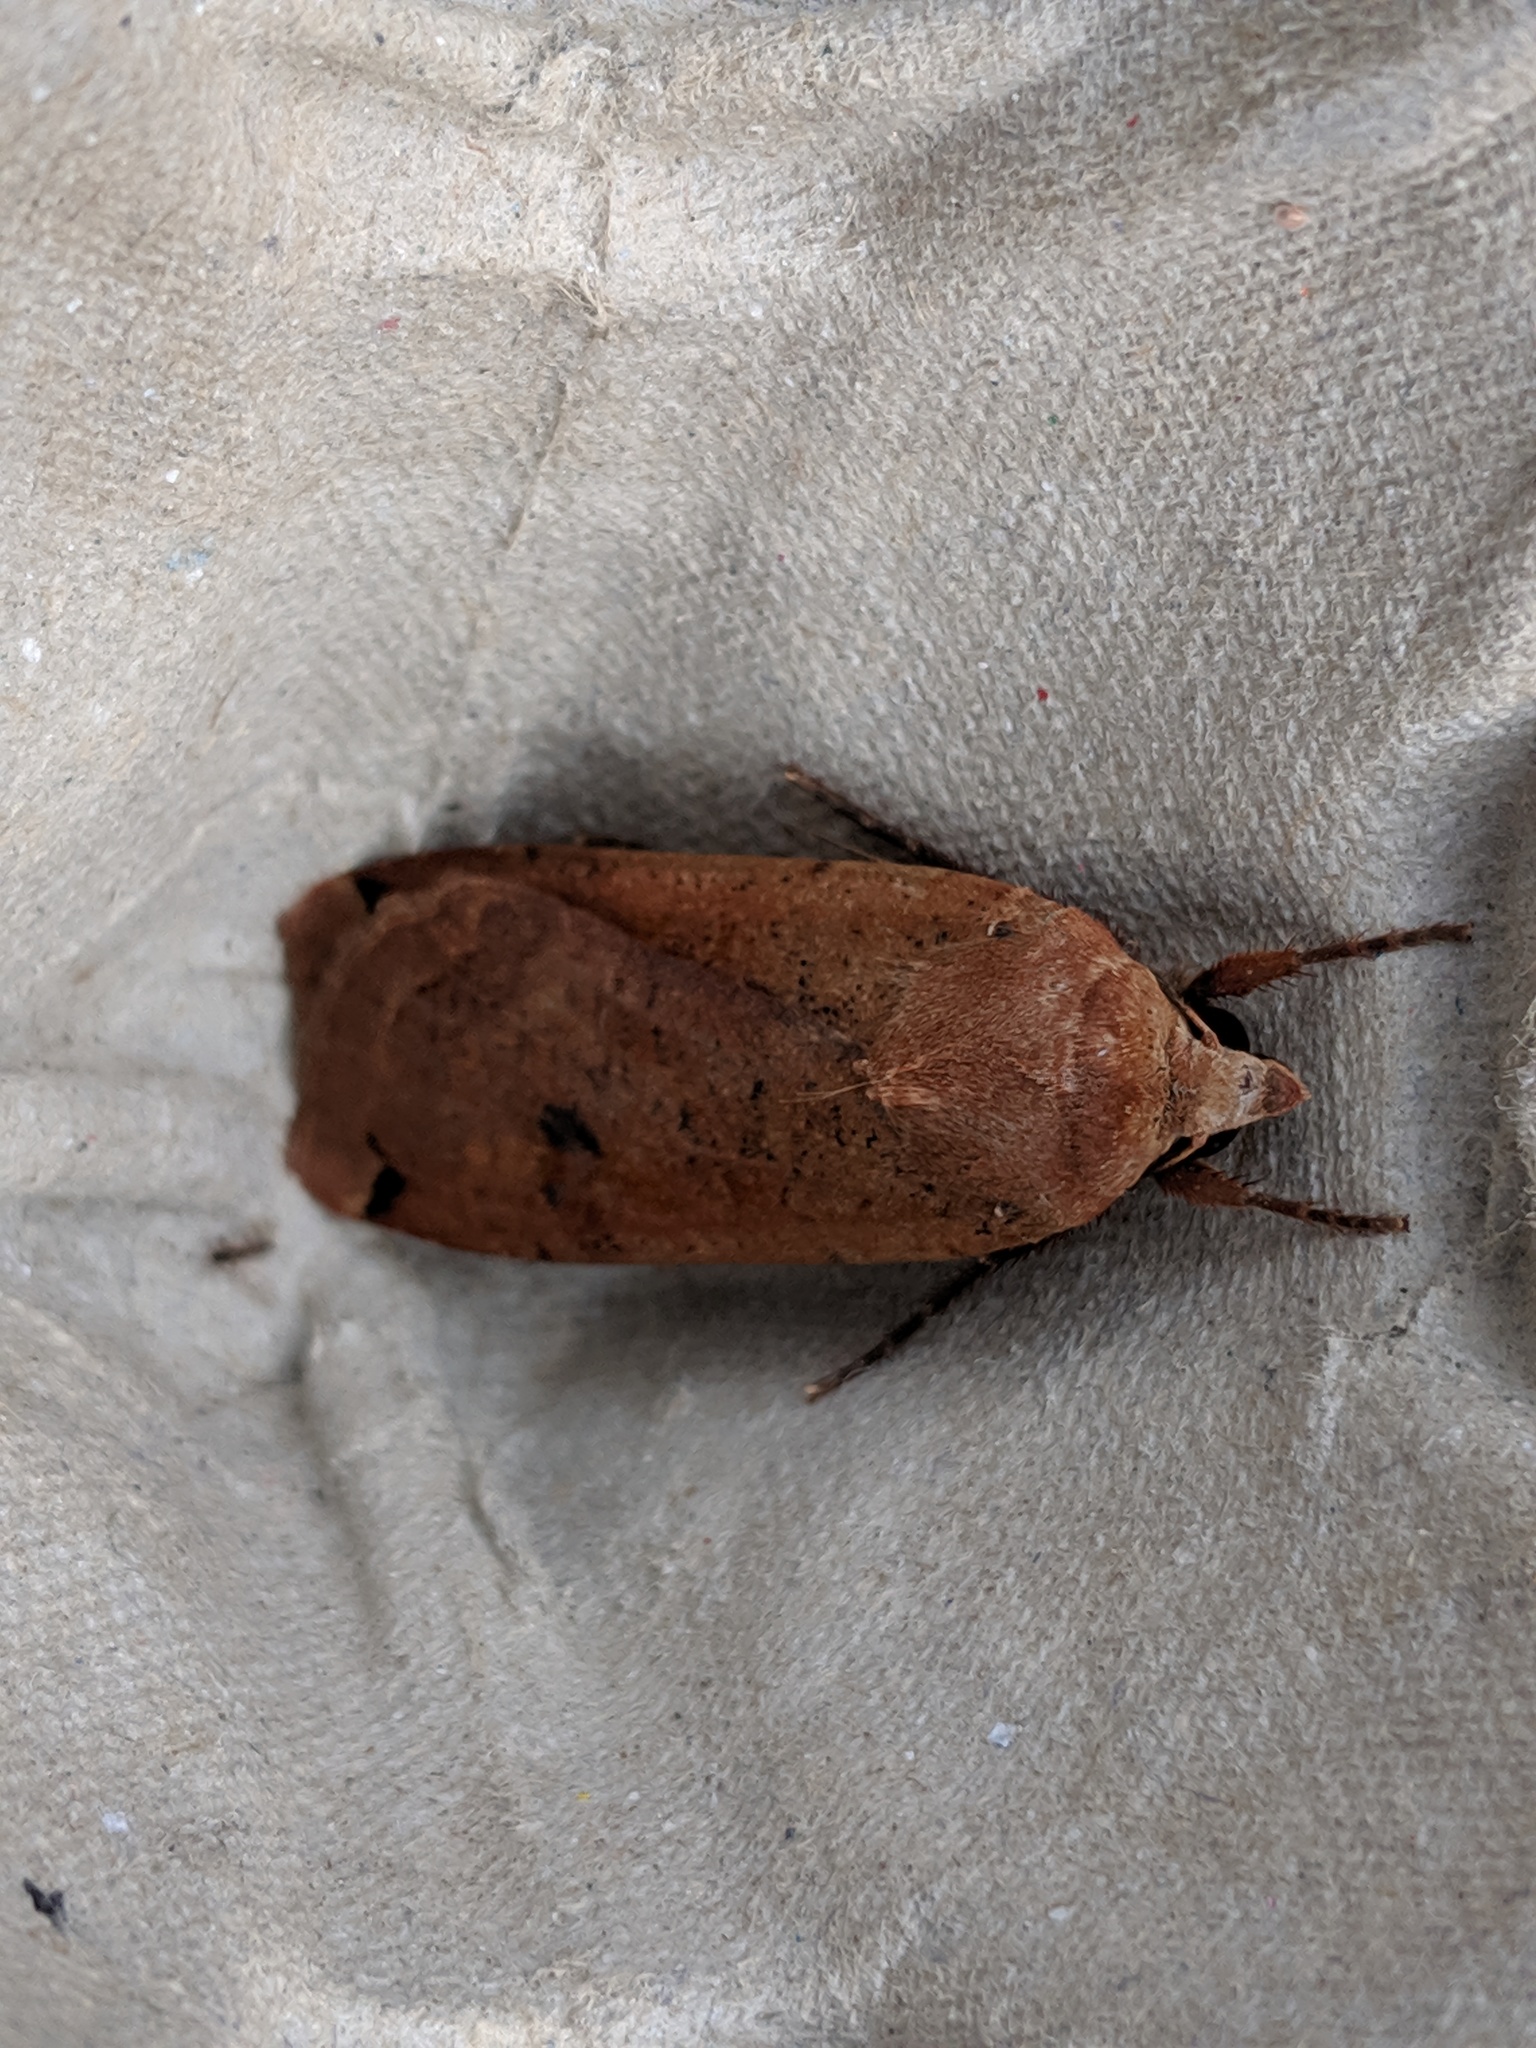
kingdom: Animalia
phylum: Arthropoda
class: Insecta
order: Lepidoptera
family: Noctuidae
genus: Noctua
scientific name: Noctua pronuba
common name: Large yellow underwing
